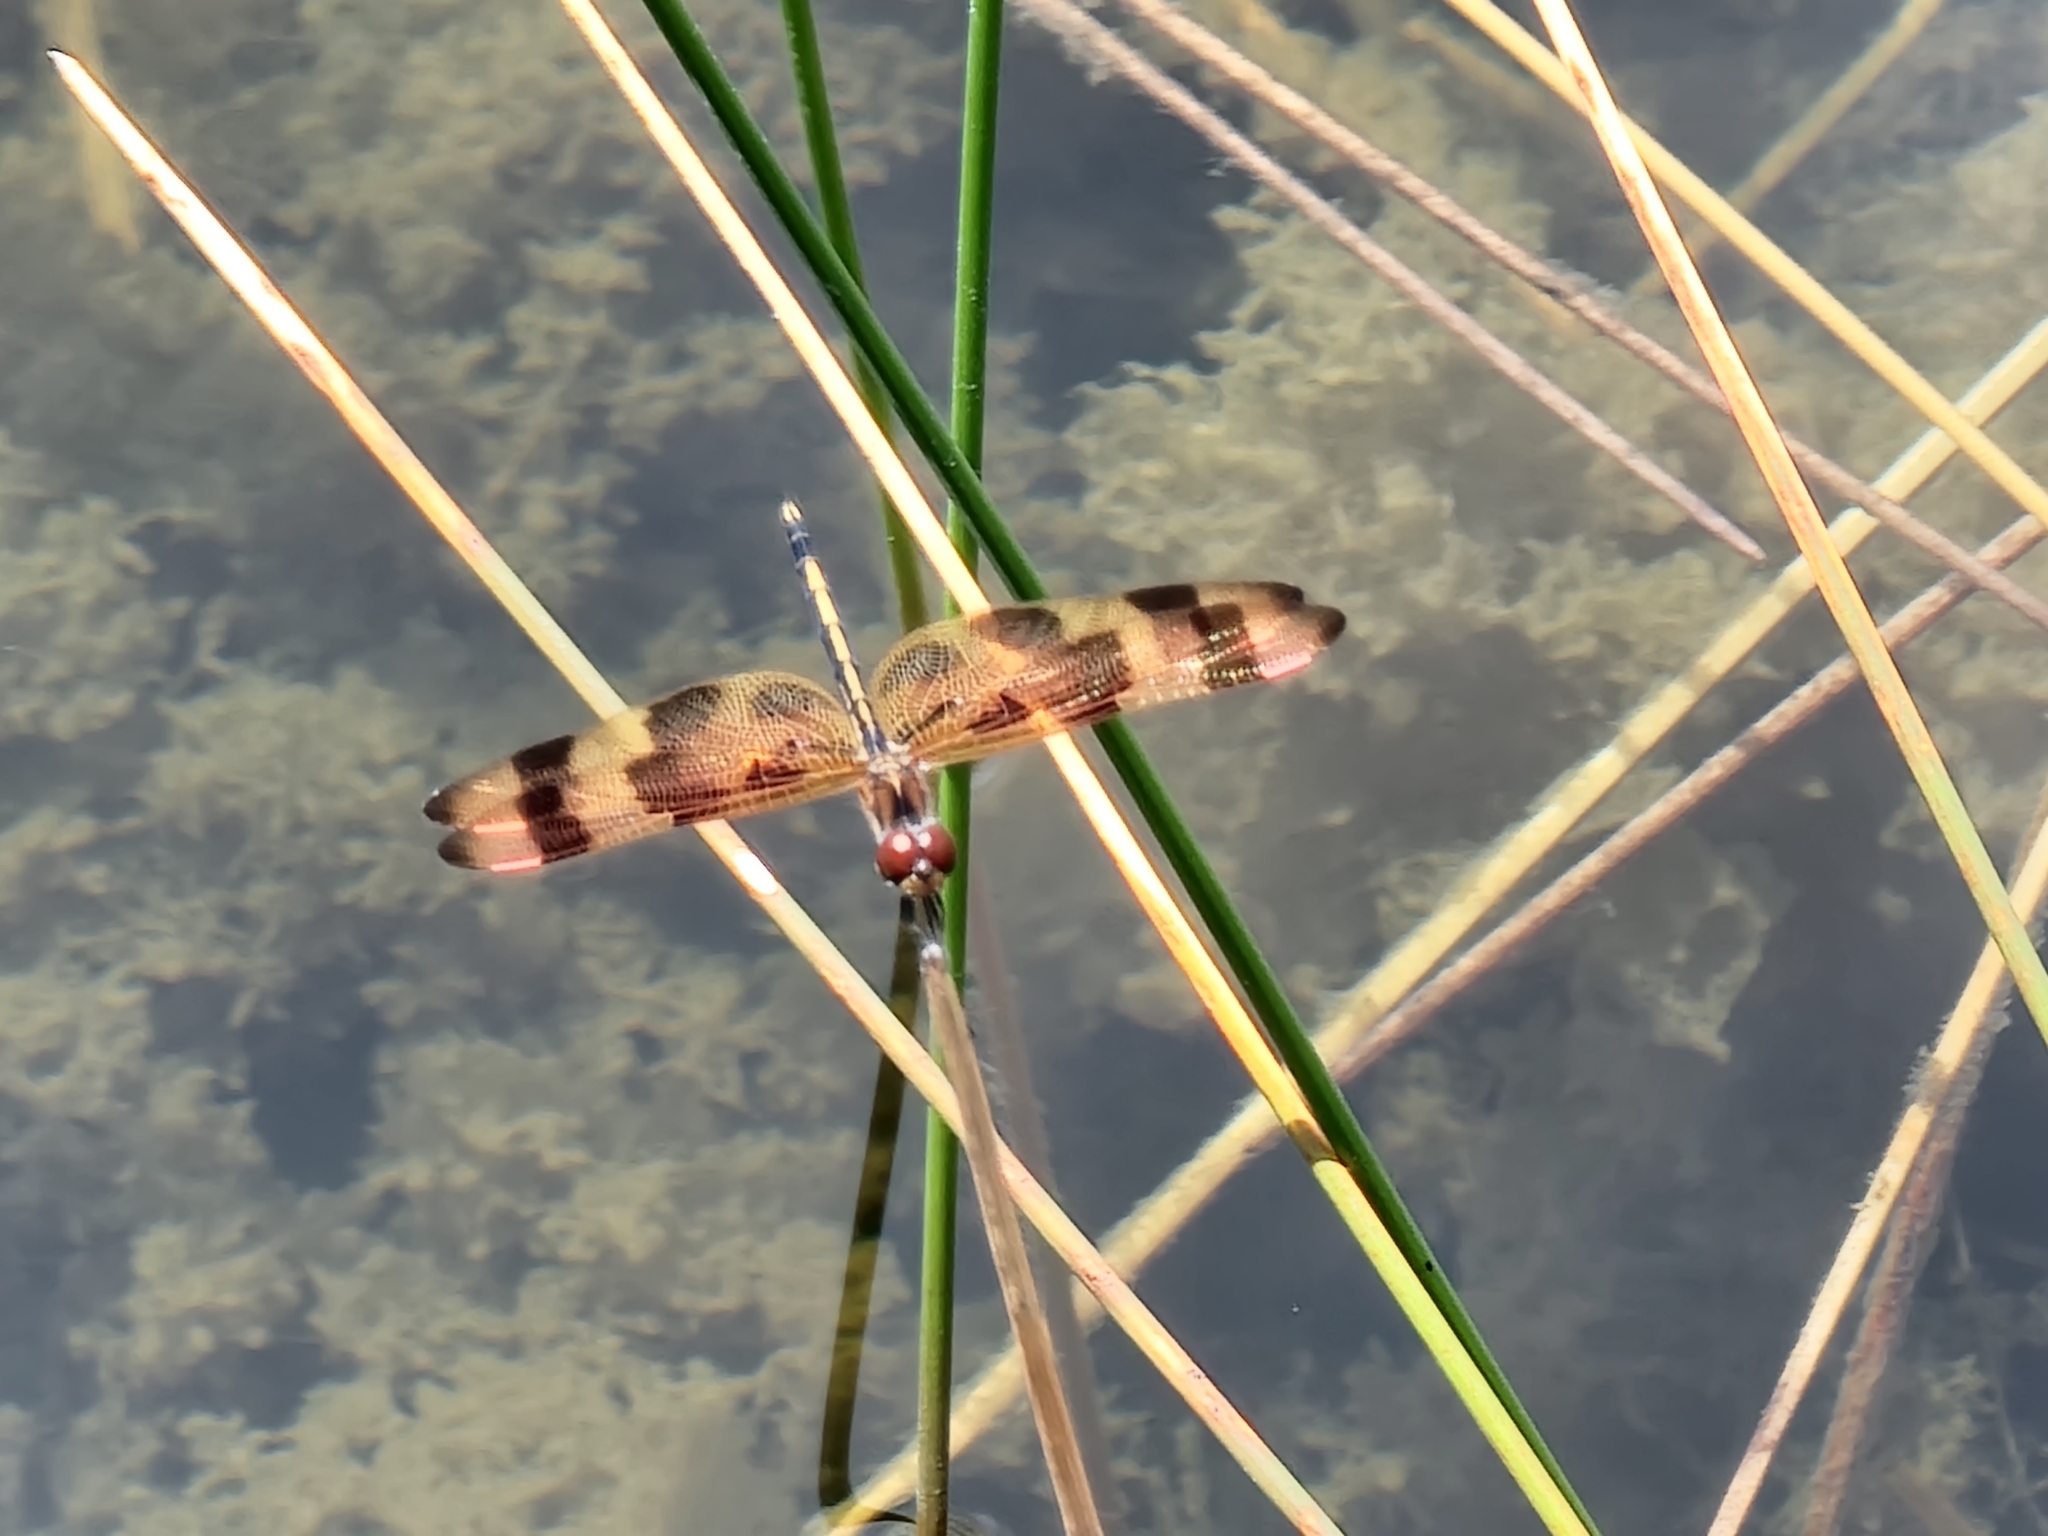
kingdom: Animalia
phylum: Arthropoda
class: Insecta
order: Odonata
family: Libellulidae
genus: Celithemis
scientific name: Celithemis eponina
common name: Halloween pennant
